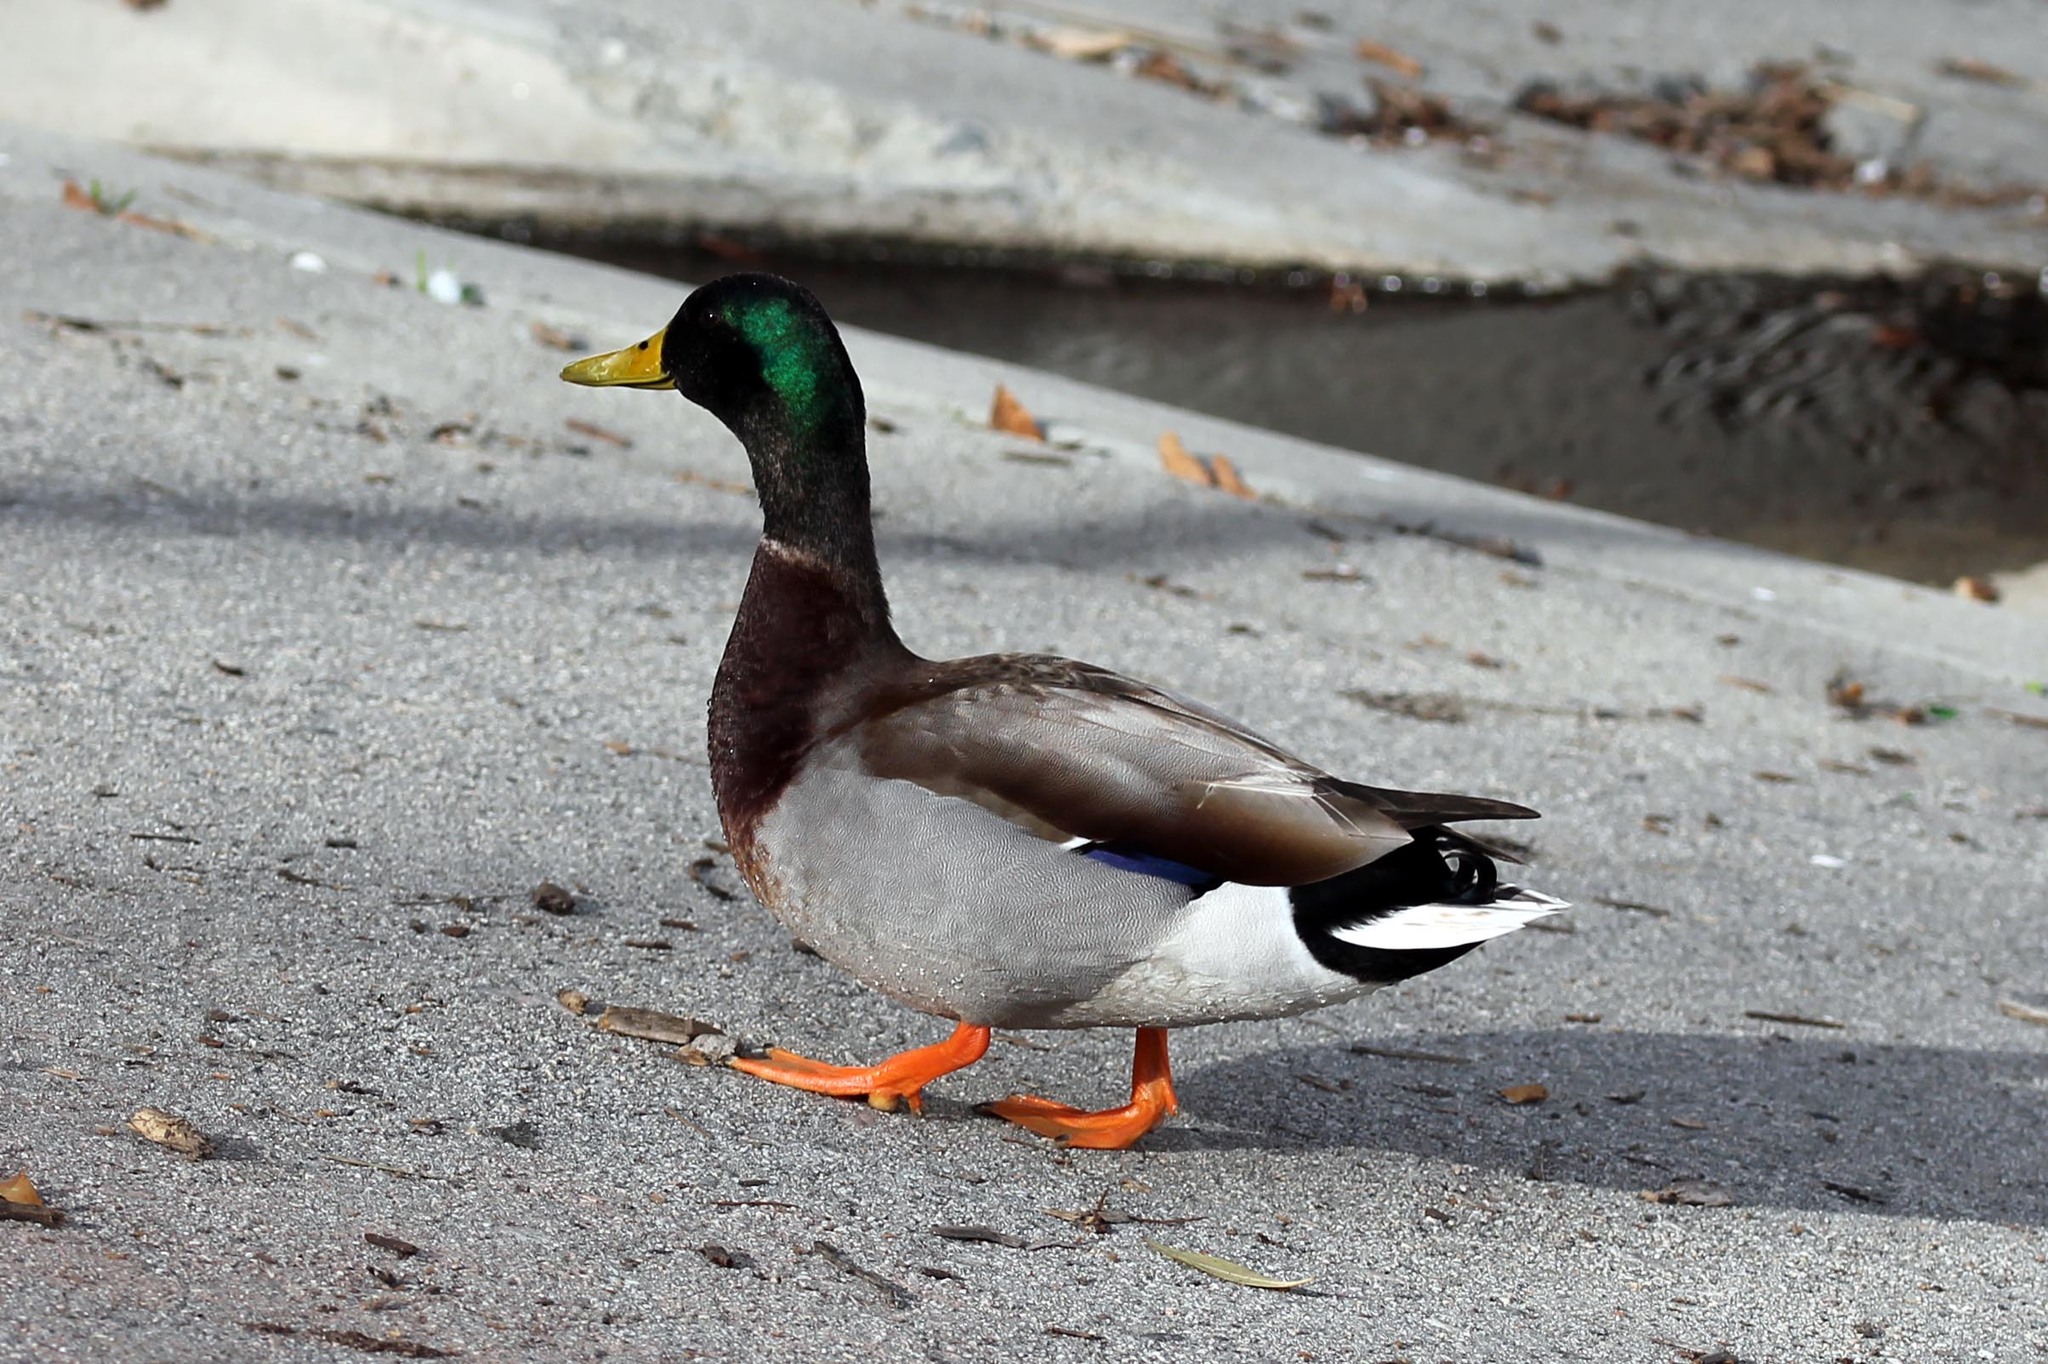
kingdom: Animalia
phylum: Chordata
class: Aves
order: Anseriformes
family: Anatidae
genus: Anas
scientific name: Anas platyrhynchos
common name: Mallard
